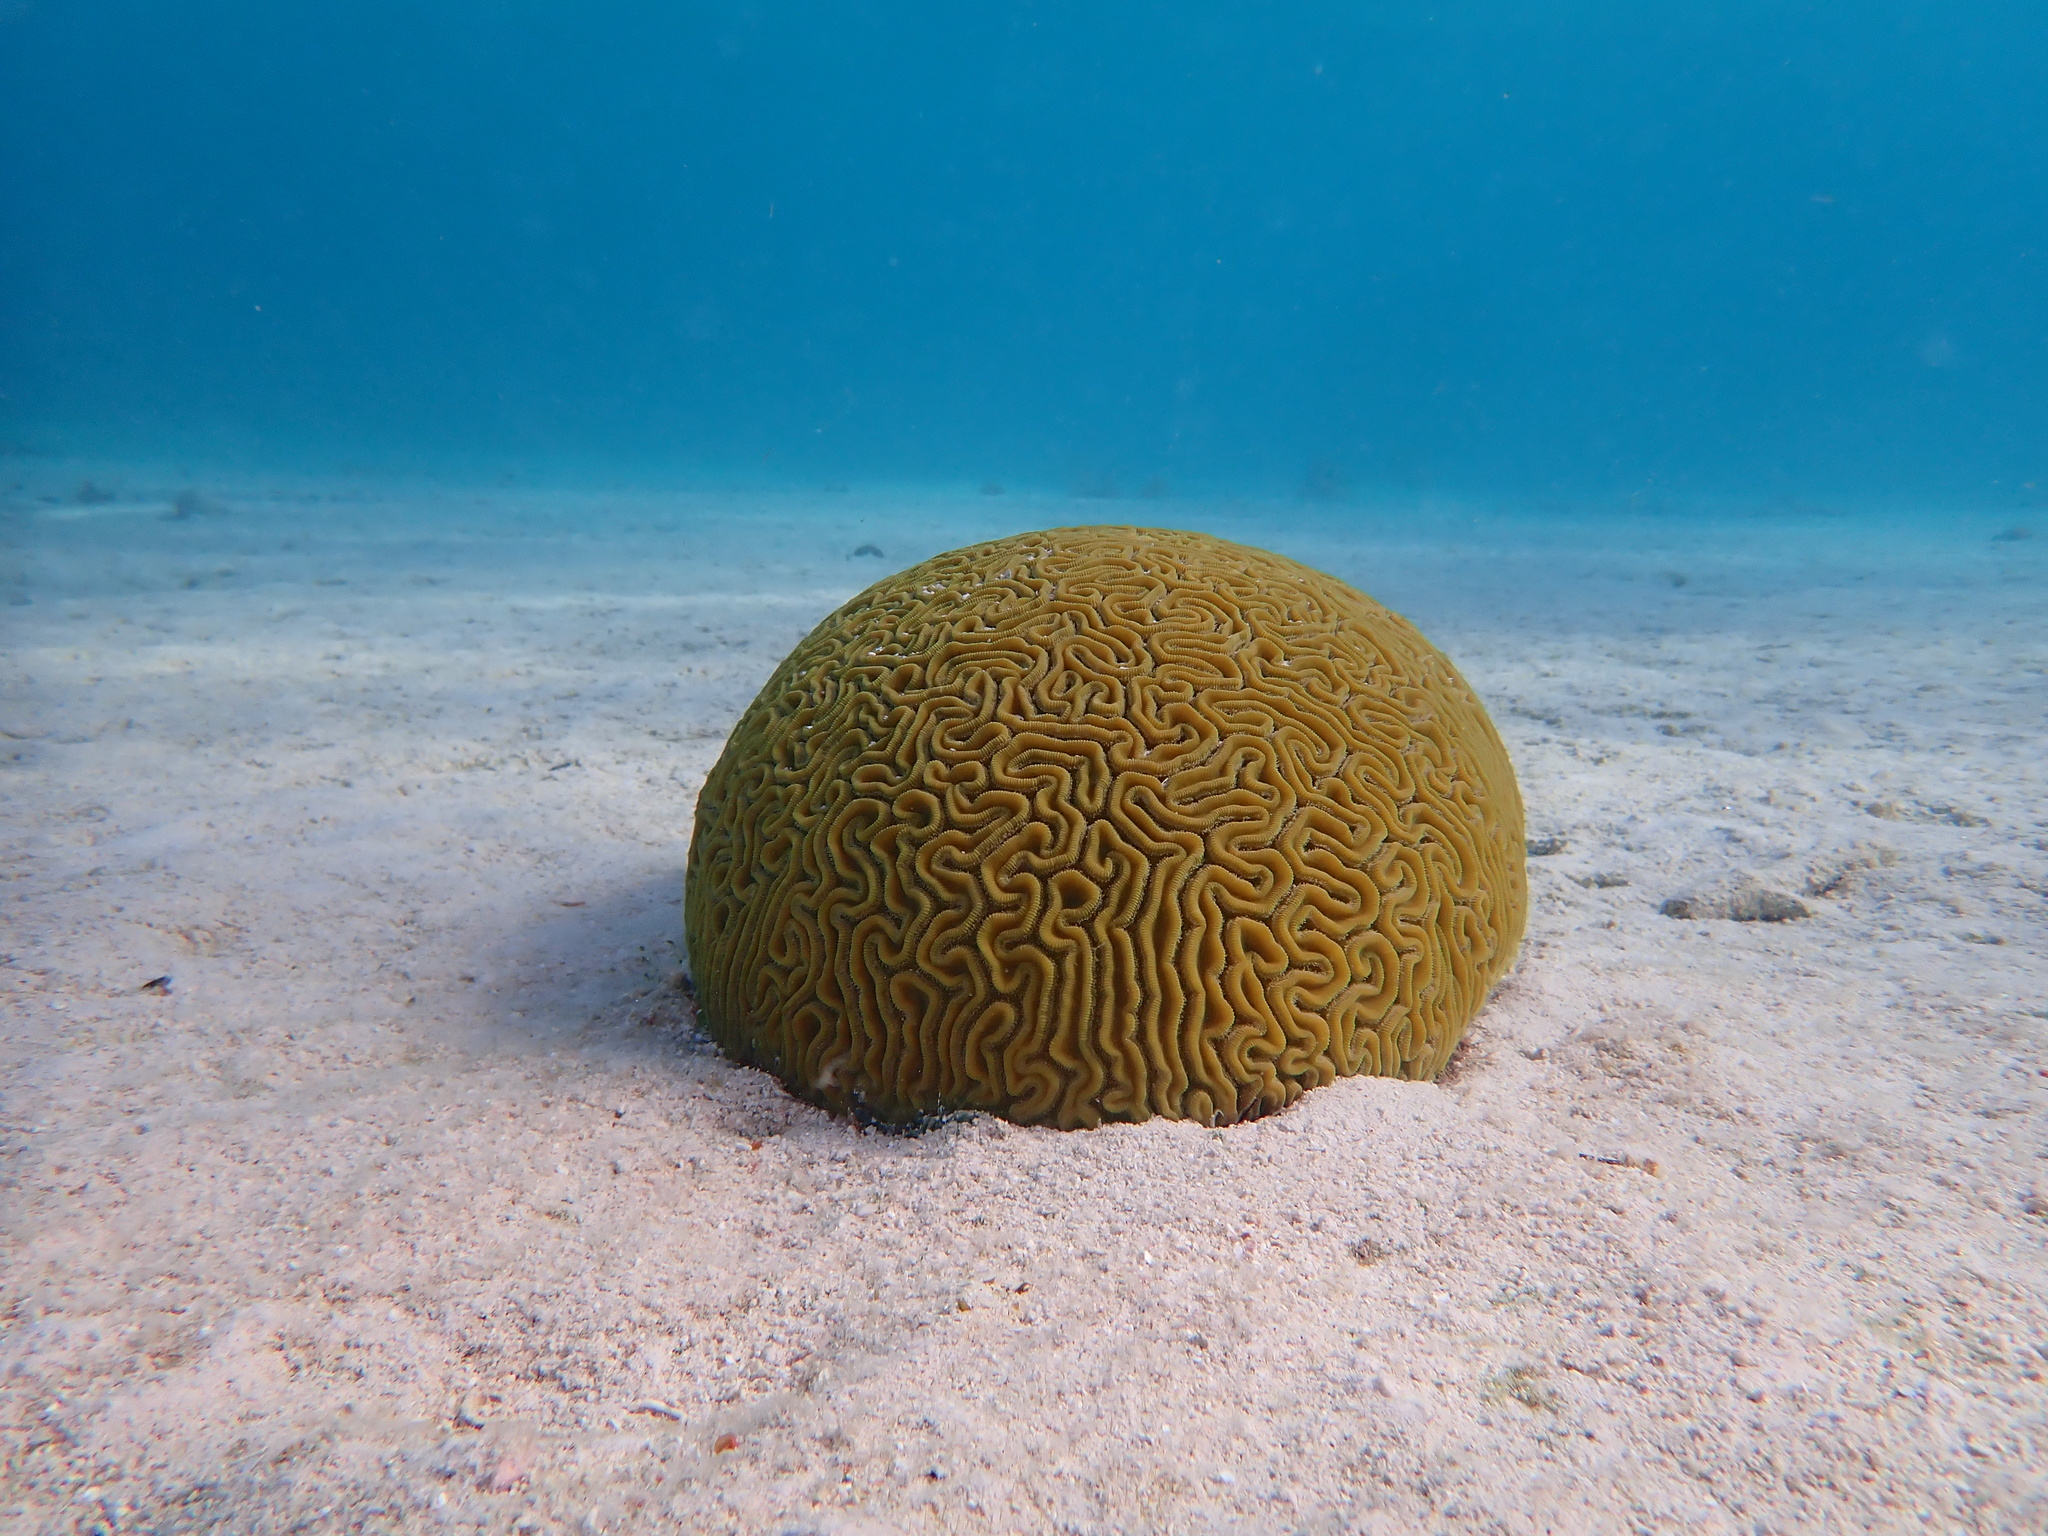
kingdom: Animalia
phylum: Cnidaria
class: Anthozoa
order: Scleractinia
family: Faviidae
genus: Diploria
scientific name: Diploria labyrinthiformis
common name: Grooved brain coral
